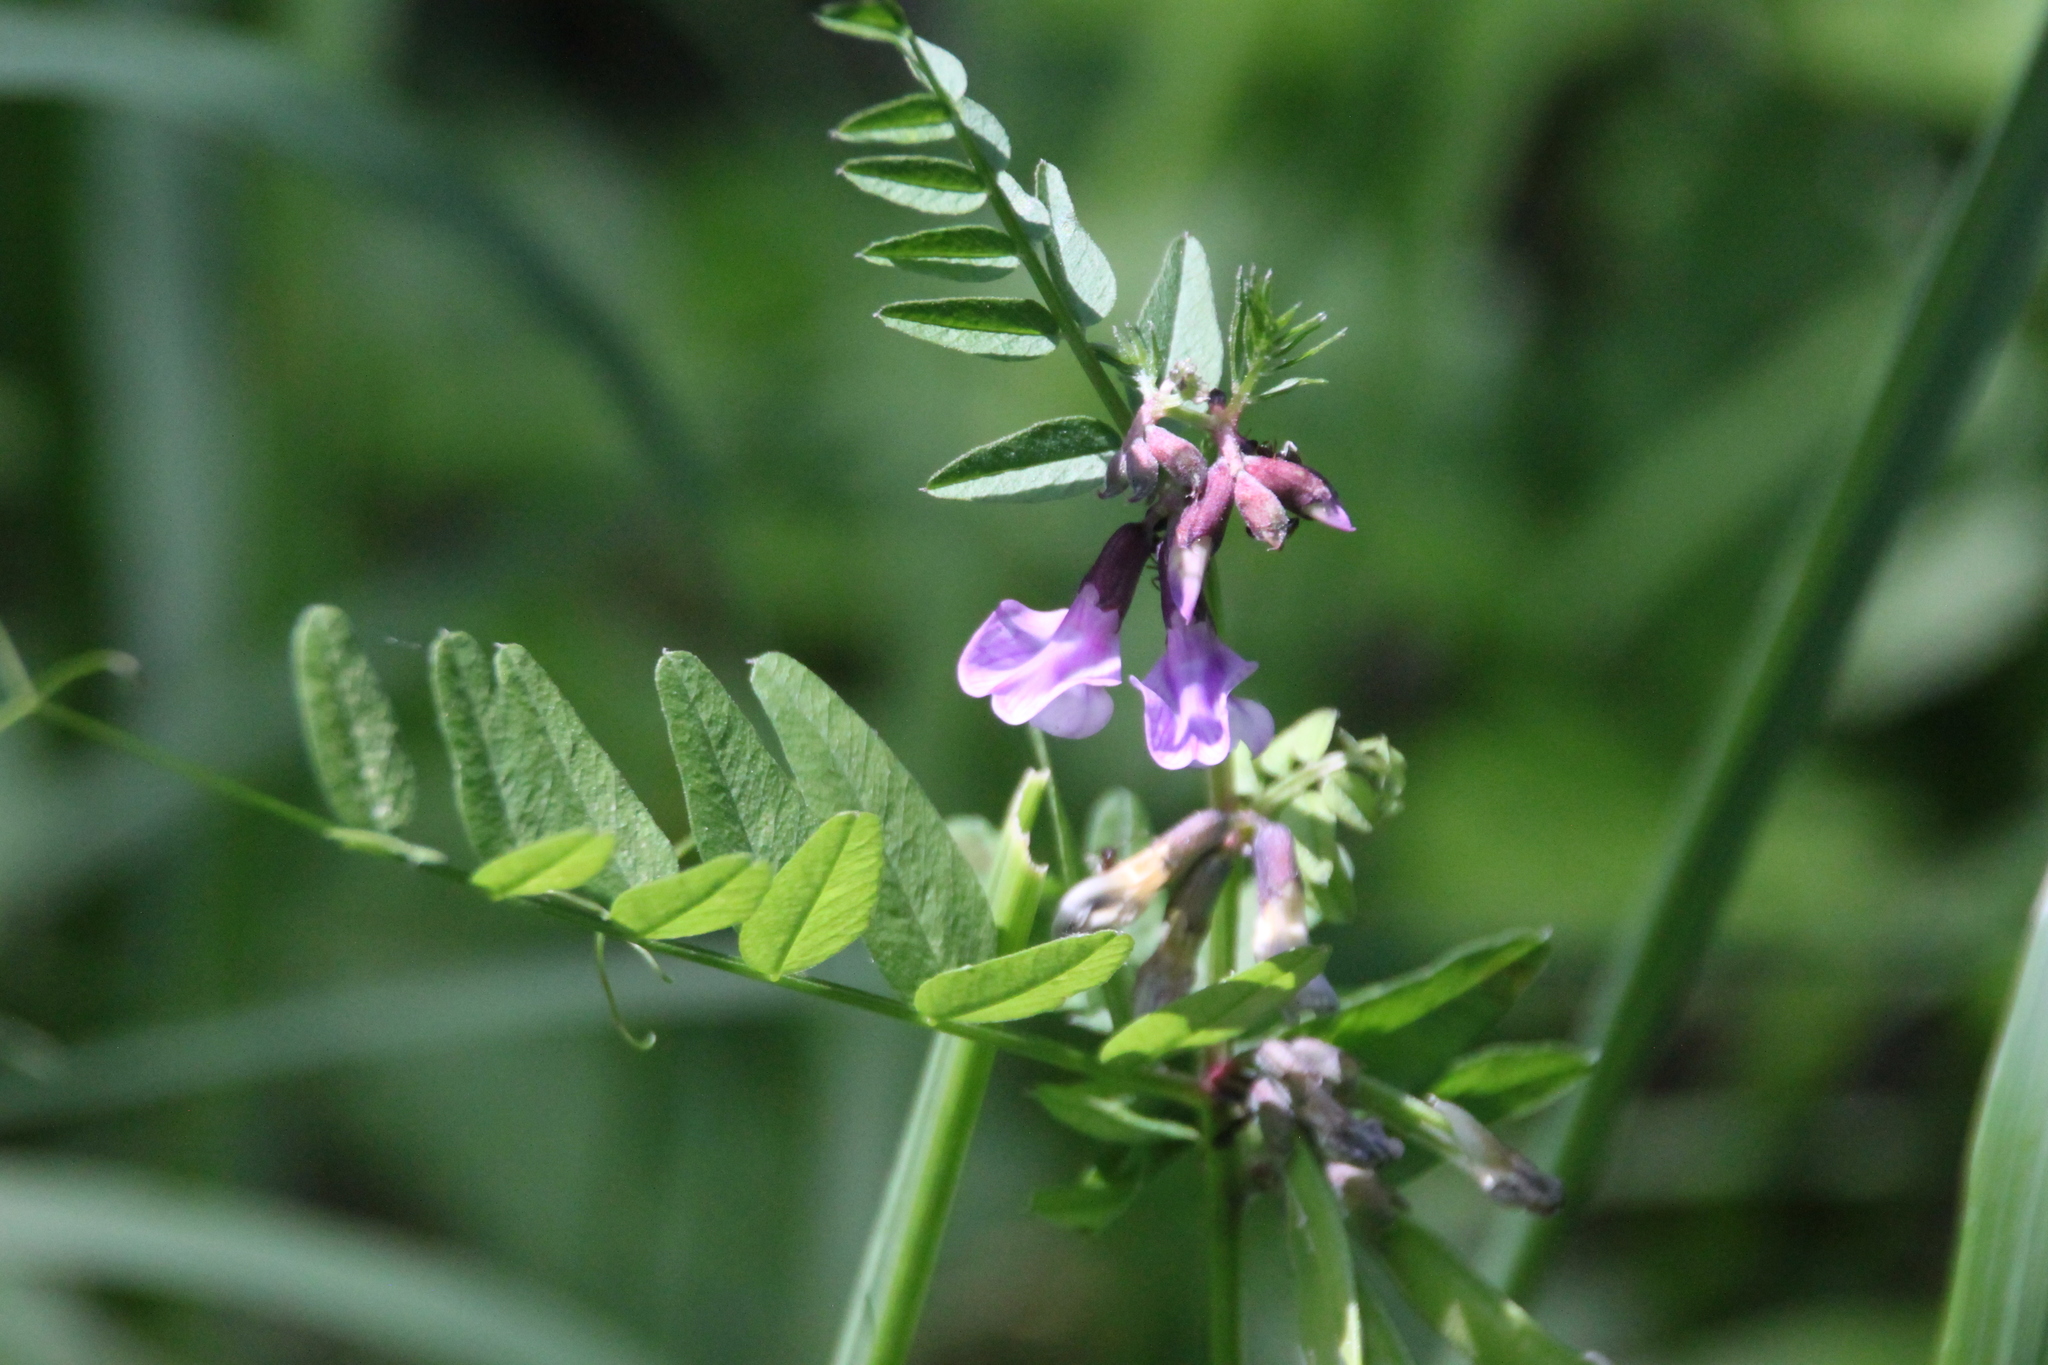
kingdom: Plantae
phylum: Tracheophyta
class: Magnoliopsida
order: Fabales
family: Fabaceae
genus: Vicia
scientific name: Vicia sepium
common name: Bush vetch
